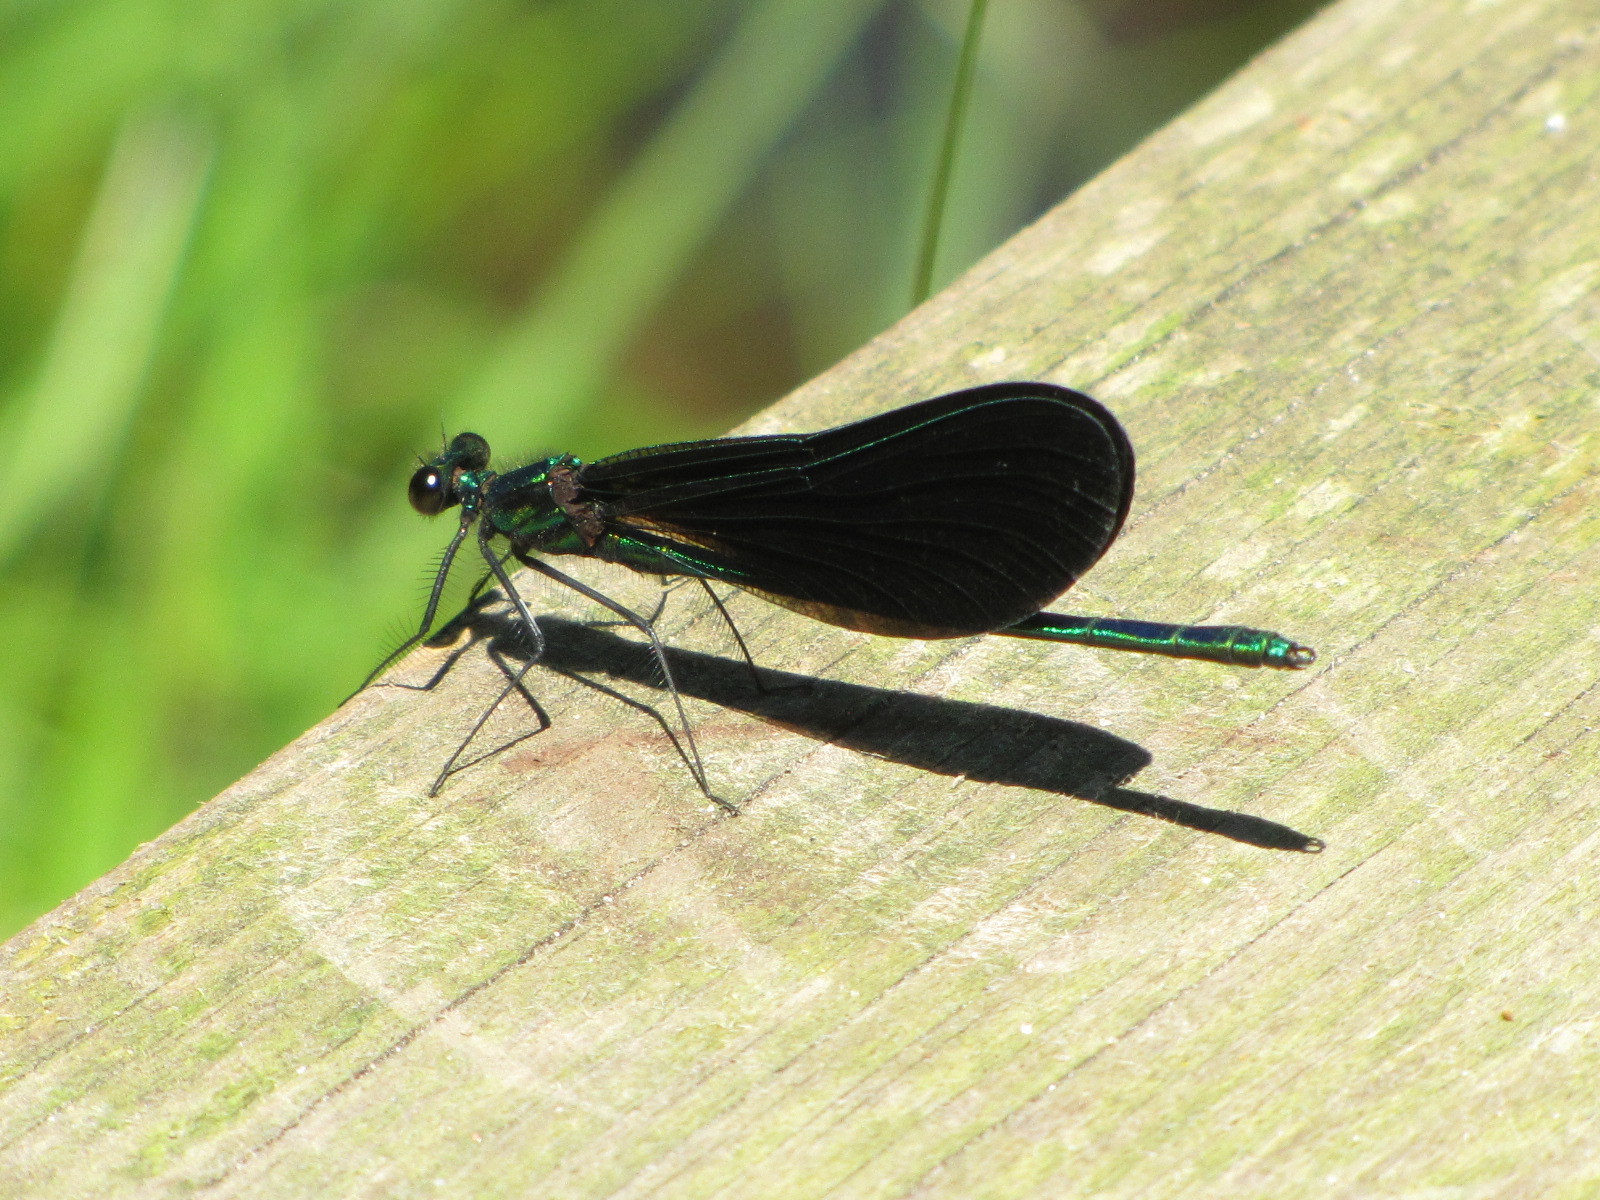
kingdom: Animalia
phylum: Arthropoda
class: Insecta
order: Odonata
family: Calopterygidae
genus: Calopteryx
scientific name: Calopteryx maculata
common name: Ebony jewelwing
